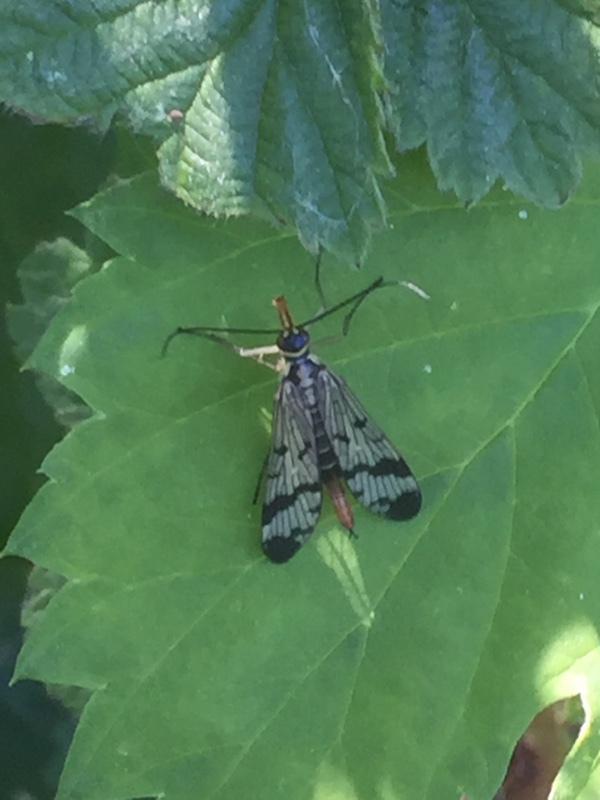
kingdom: Animalia
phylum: Arthropoda
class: Insecta
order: Mecoptera
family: Panorpidae
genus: Panorpa
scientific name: Panorpa communis
